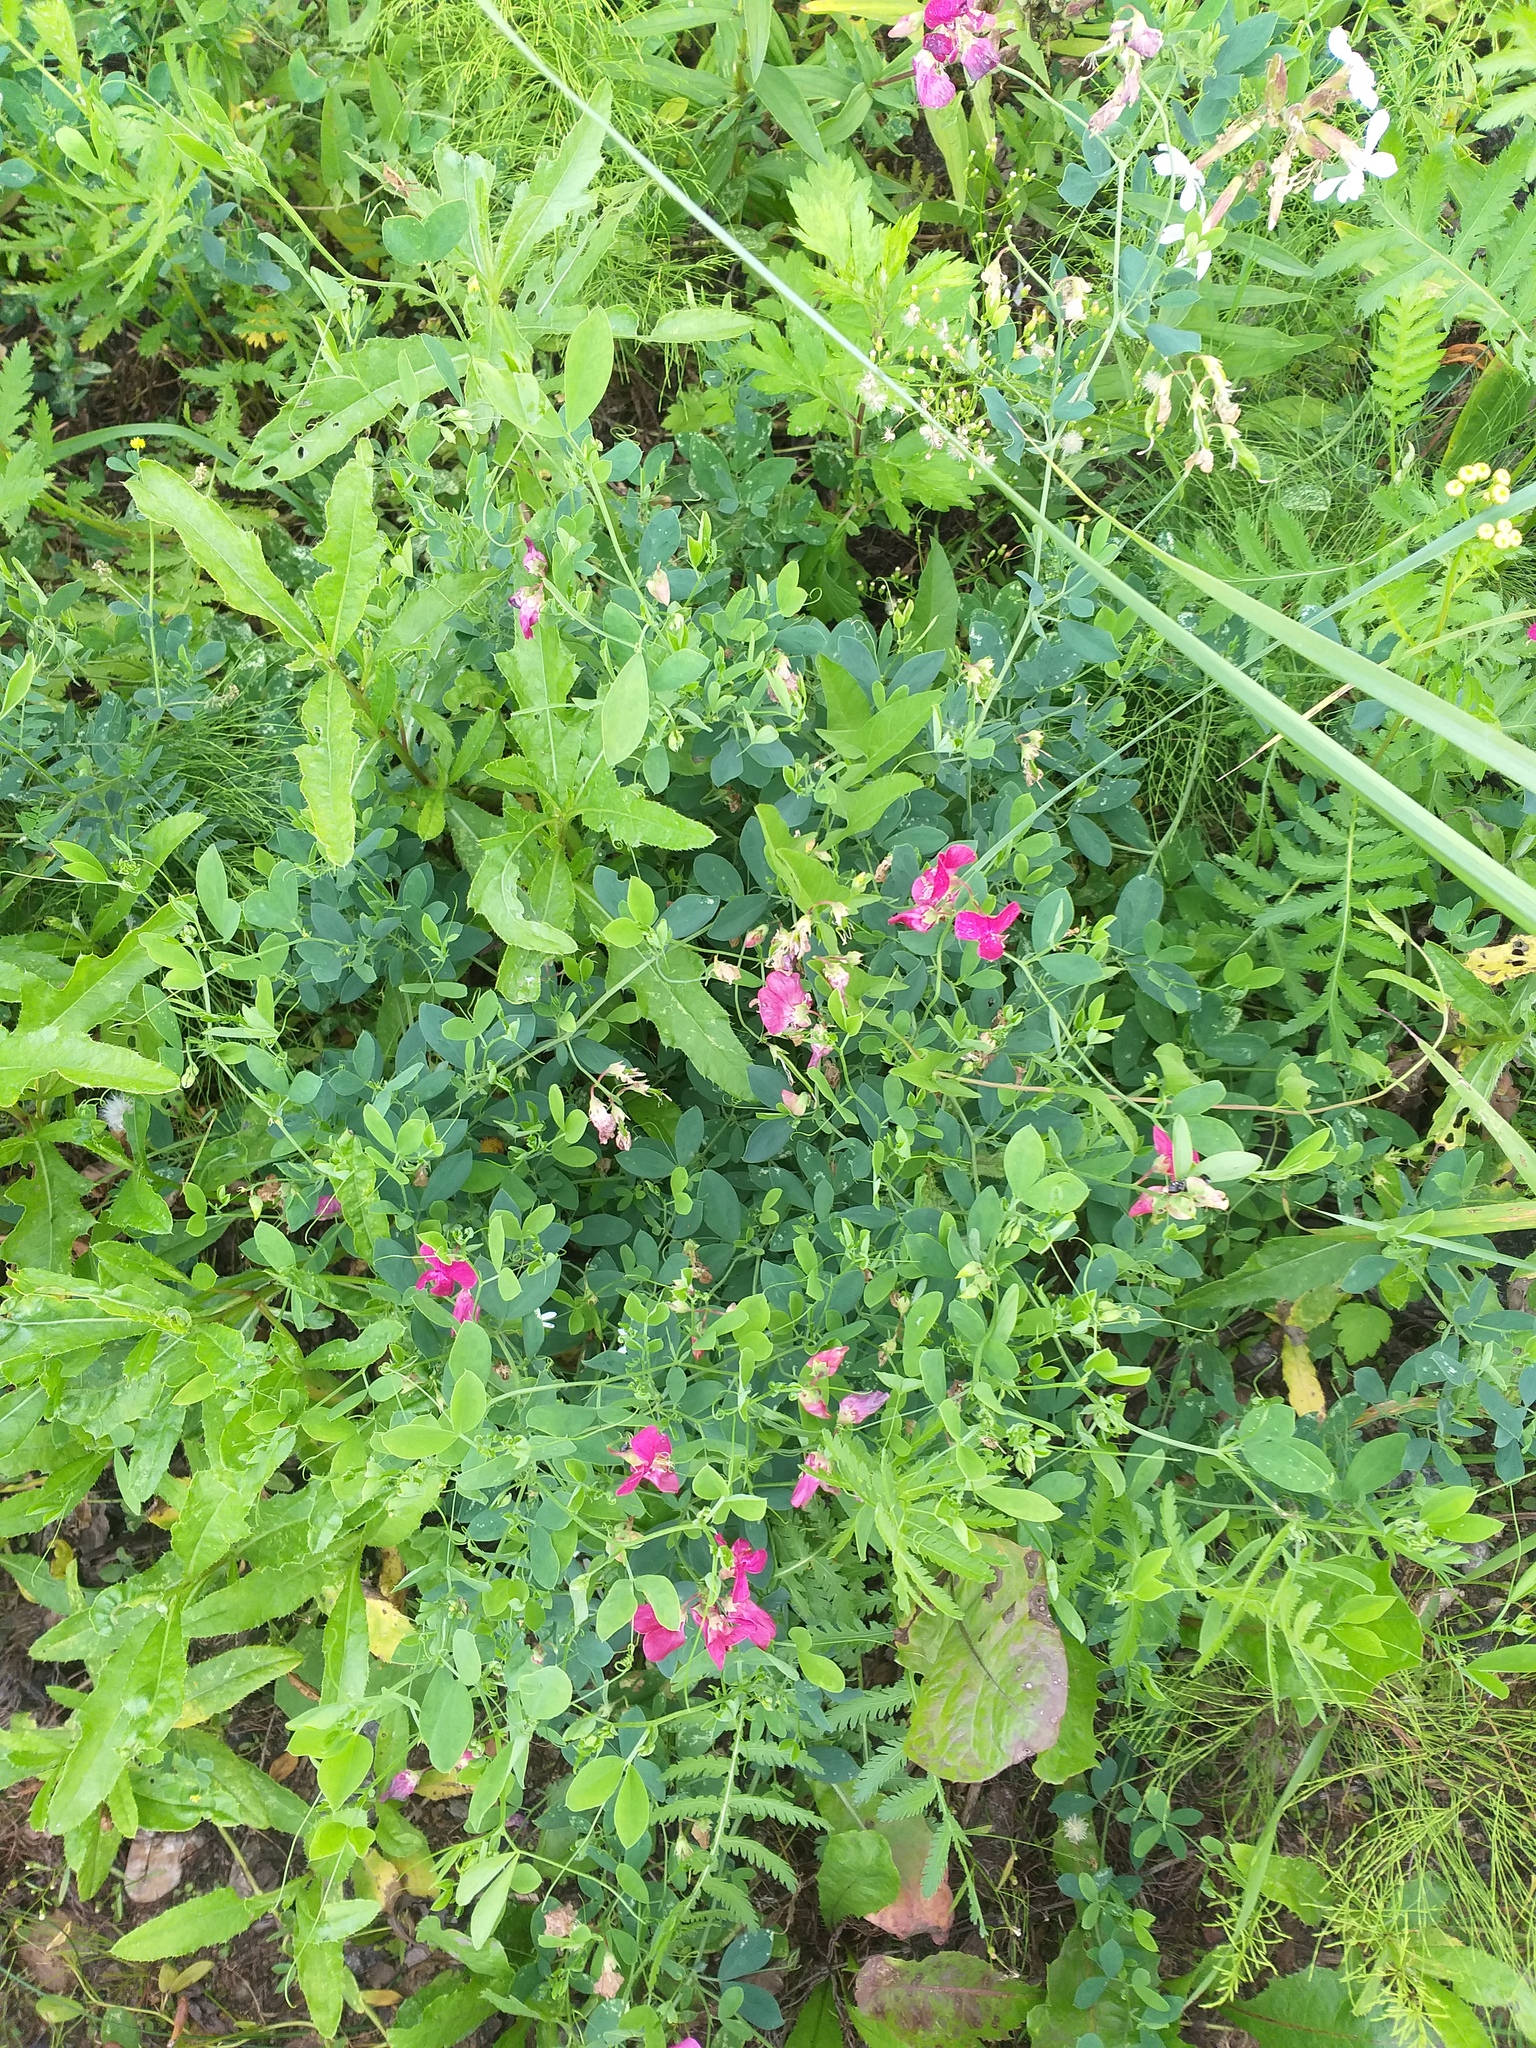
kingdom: Plantae
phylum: Tracheophyta
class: Magnoliopsida
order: Fabales
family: Fabaceae
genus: Lathyrus
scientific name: Lathyrus tuberosus
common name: Tuberous pea
